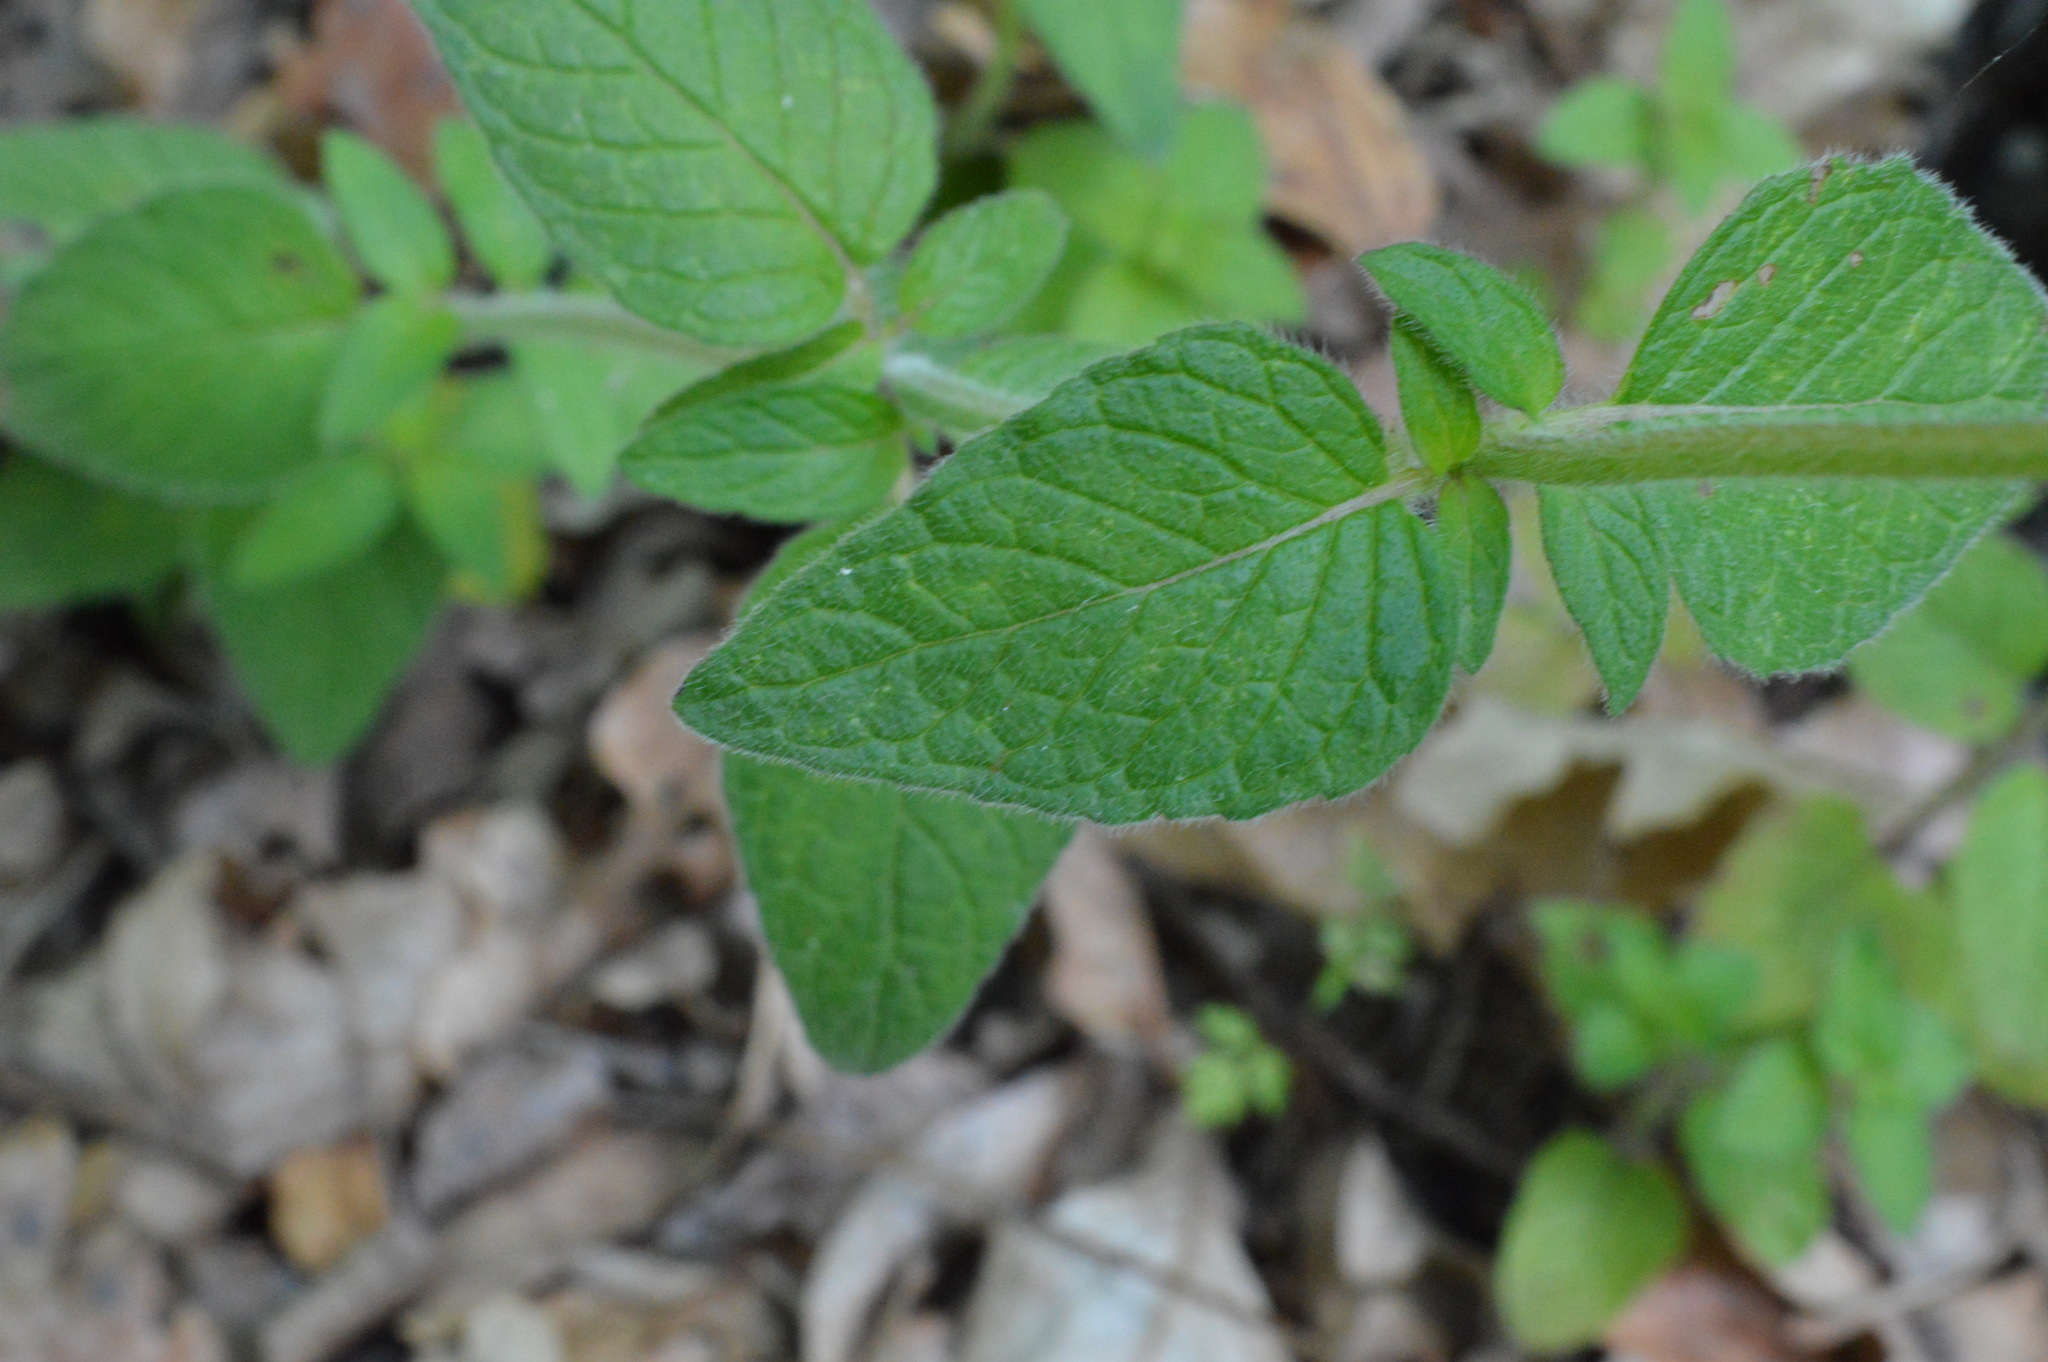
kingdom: Plantae
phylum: Tracheophyta
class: Magnoliopsida
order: Lamiales
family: Lamiaceae
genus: Clinopodium
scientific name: Clinopodium vulgare
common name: Wild basil
